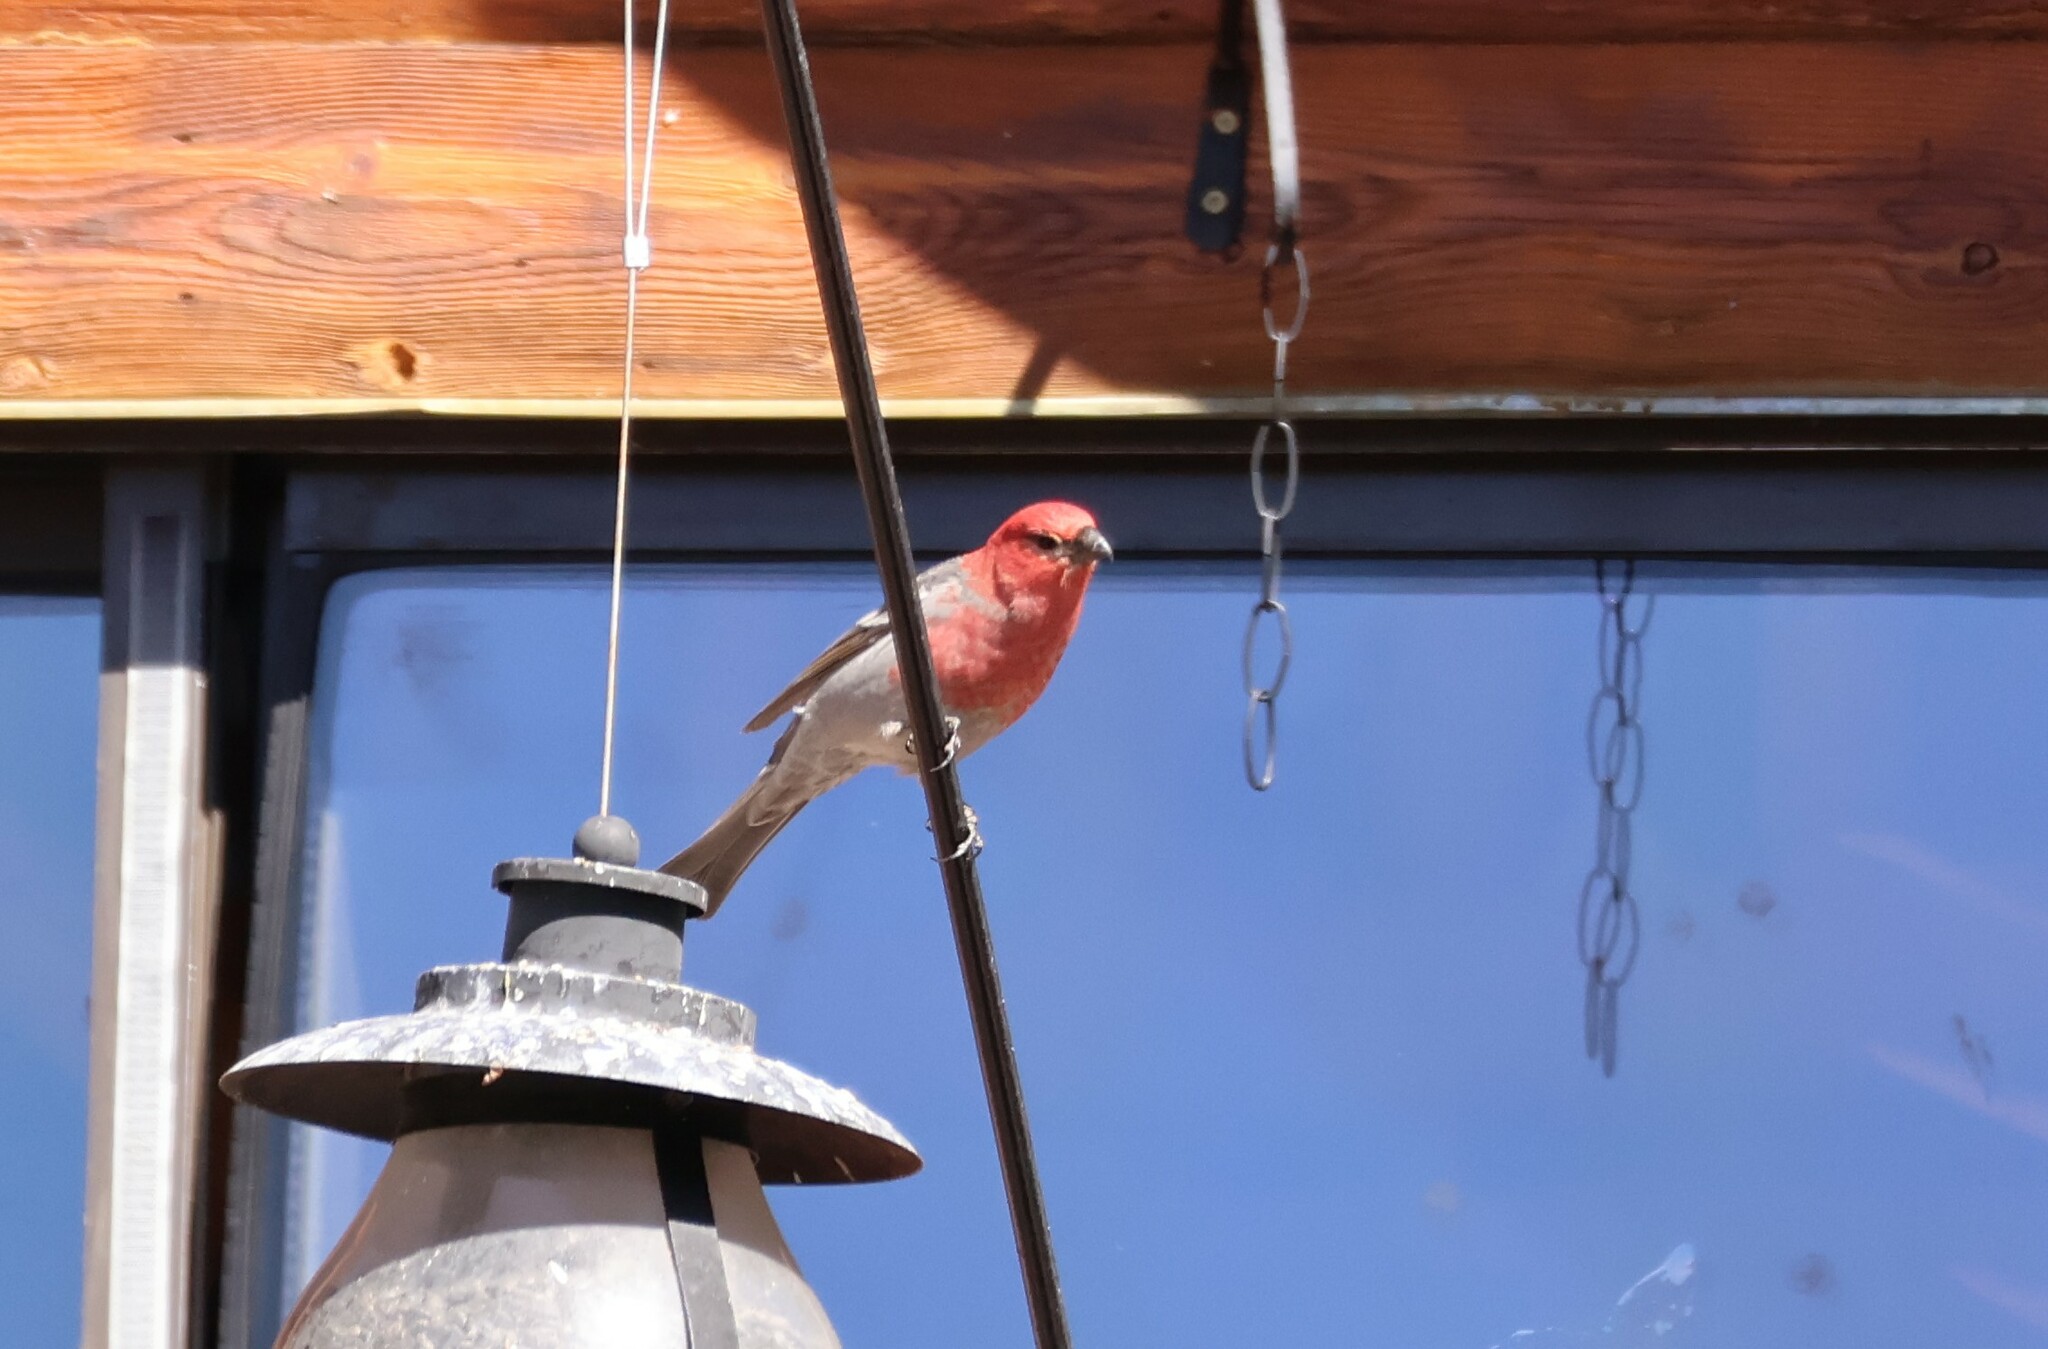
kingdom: Animalia
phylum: Chordata
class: Aves
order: Passeriformes
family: Fringillidae
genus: Pinicola
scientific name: Pinicola enucleator
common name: Pine grosbeak
